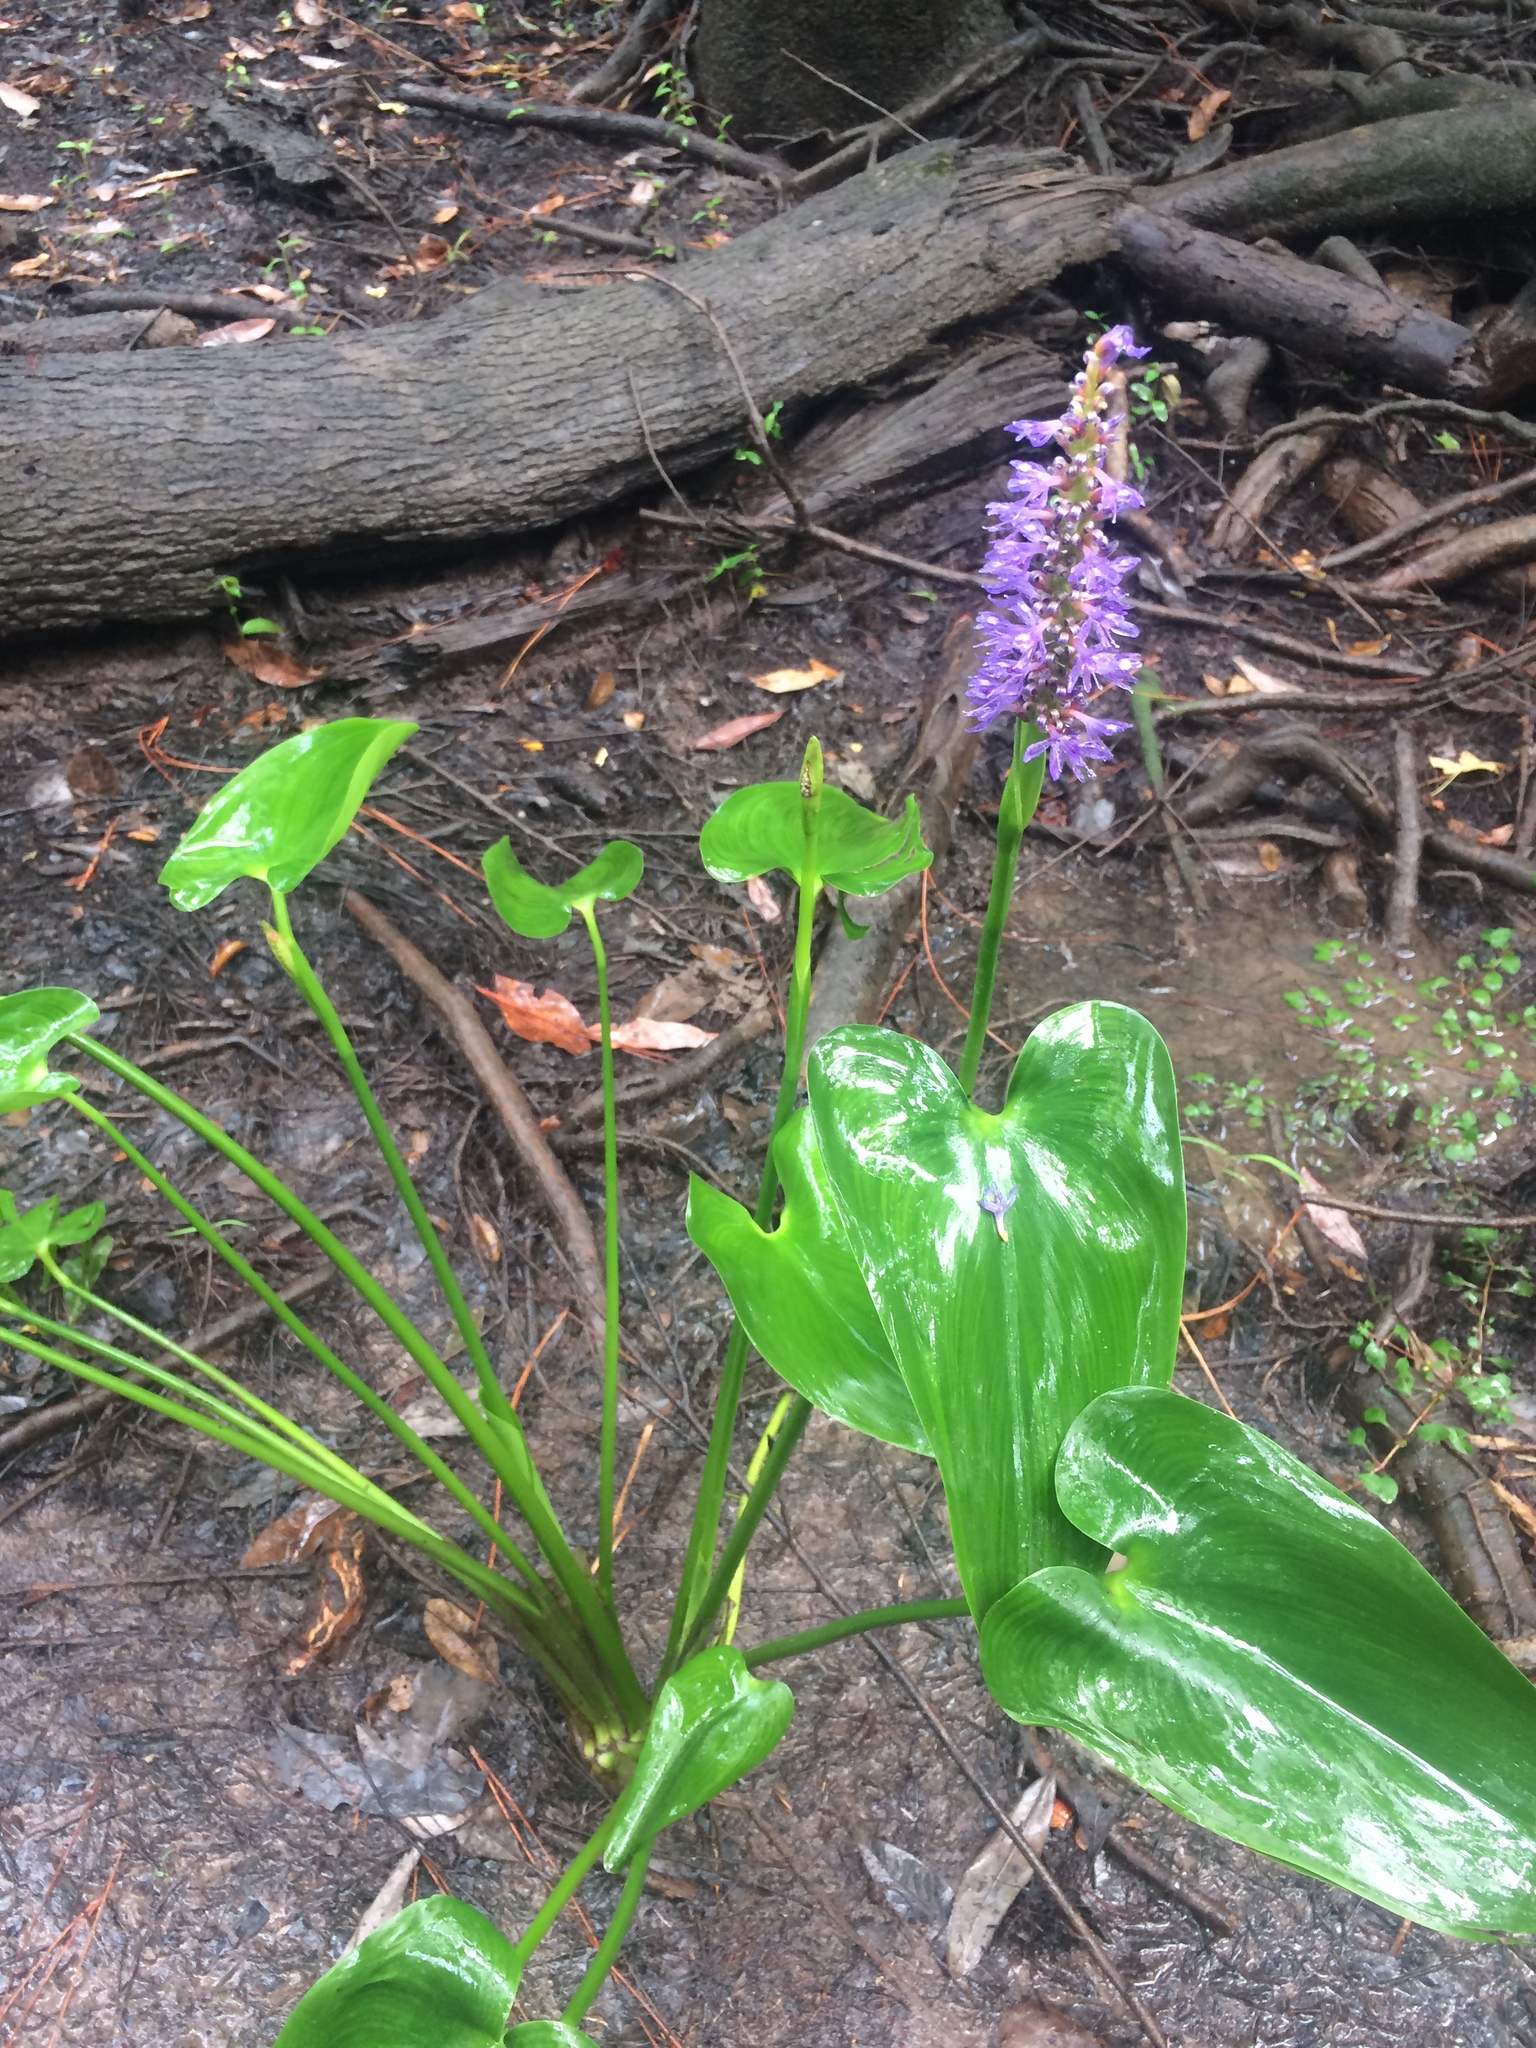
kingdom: Plantae
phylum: Tracheophyta
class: Liliopsida
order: Commelinales
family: Pontederiaceae
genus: Pontederia
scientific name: Pontederia cordata
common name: Pickerelweed
